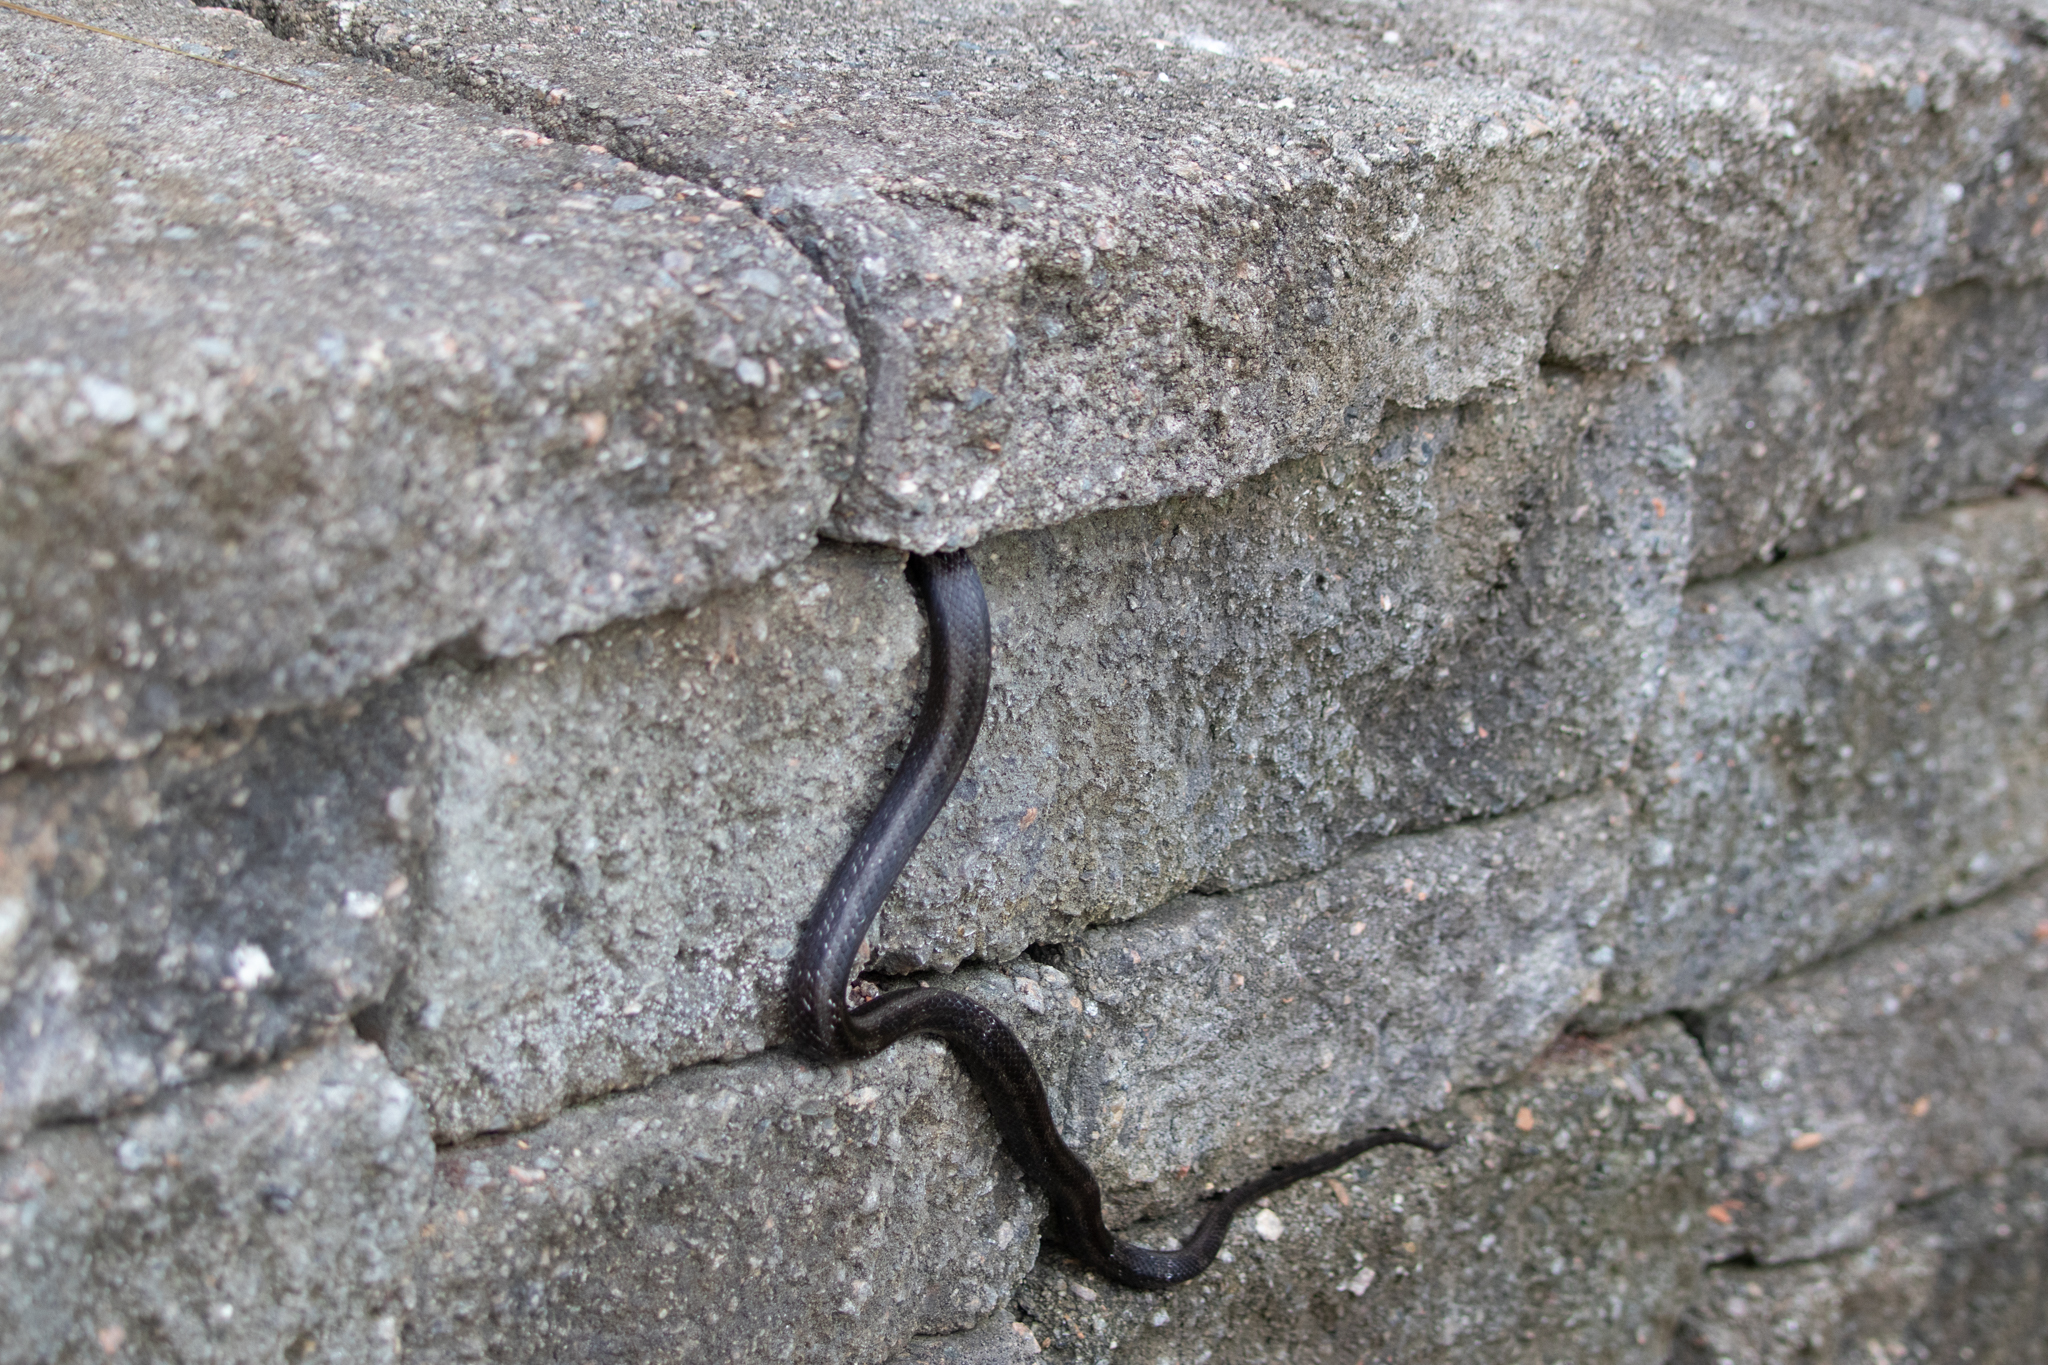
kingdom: Animalia
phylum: Chordata
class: Squamata
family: Colubridae
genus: Pantherophis
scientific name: Pantherophis alleghaniensis
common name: Eastern rat snake
